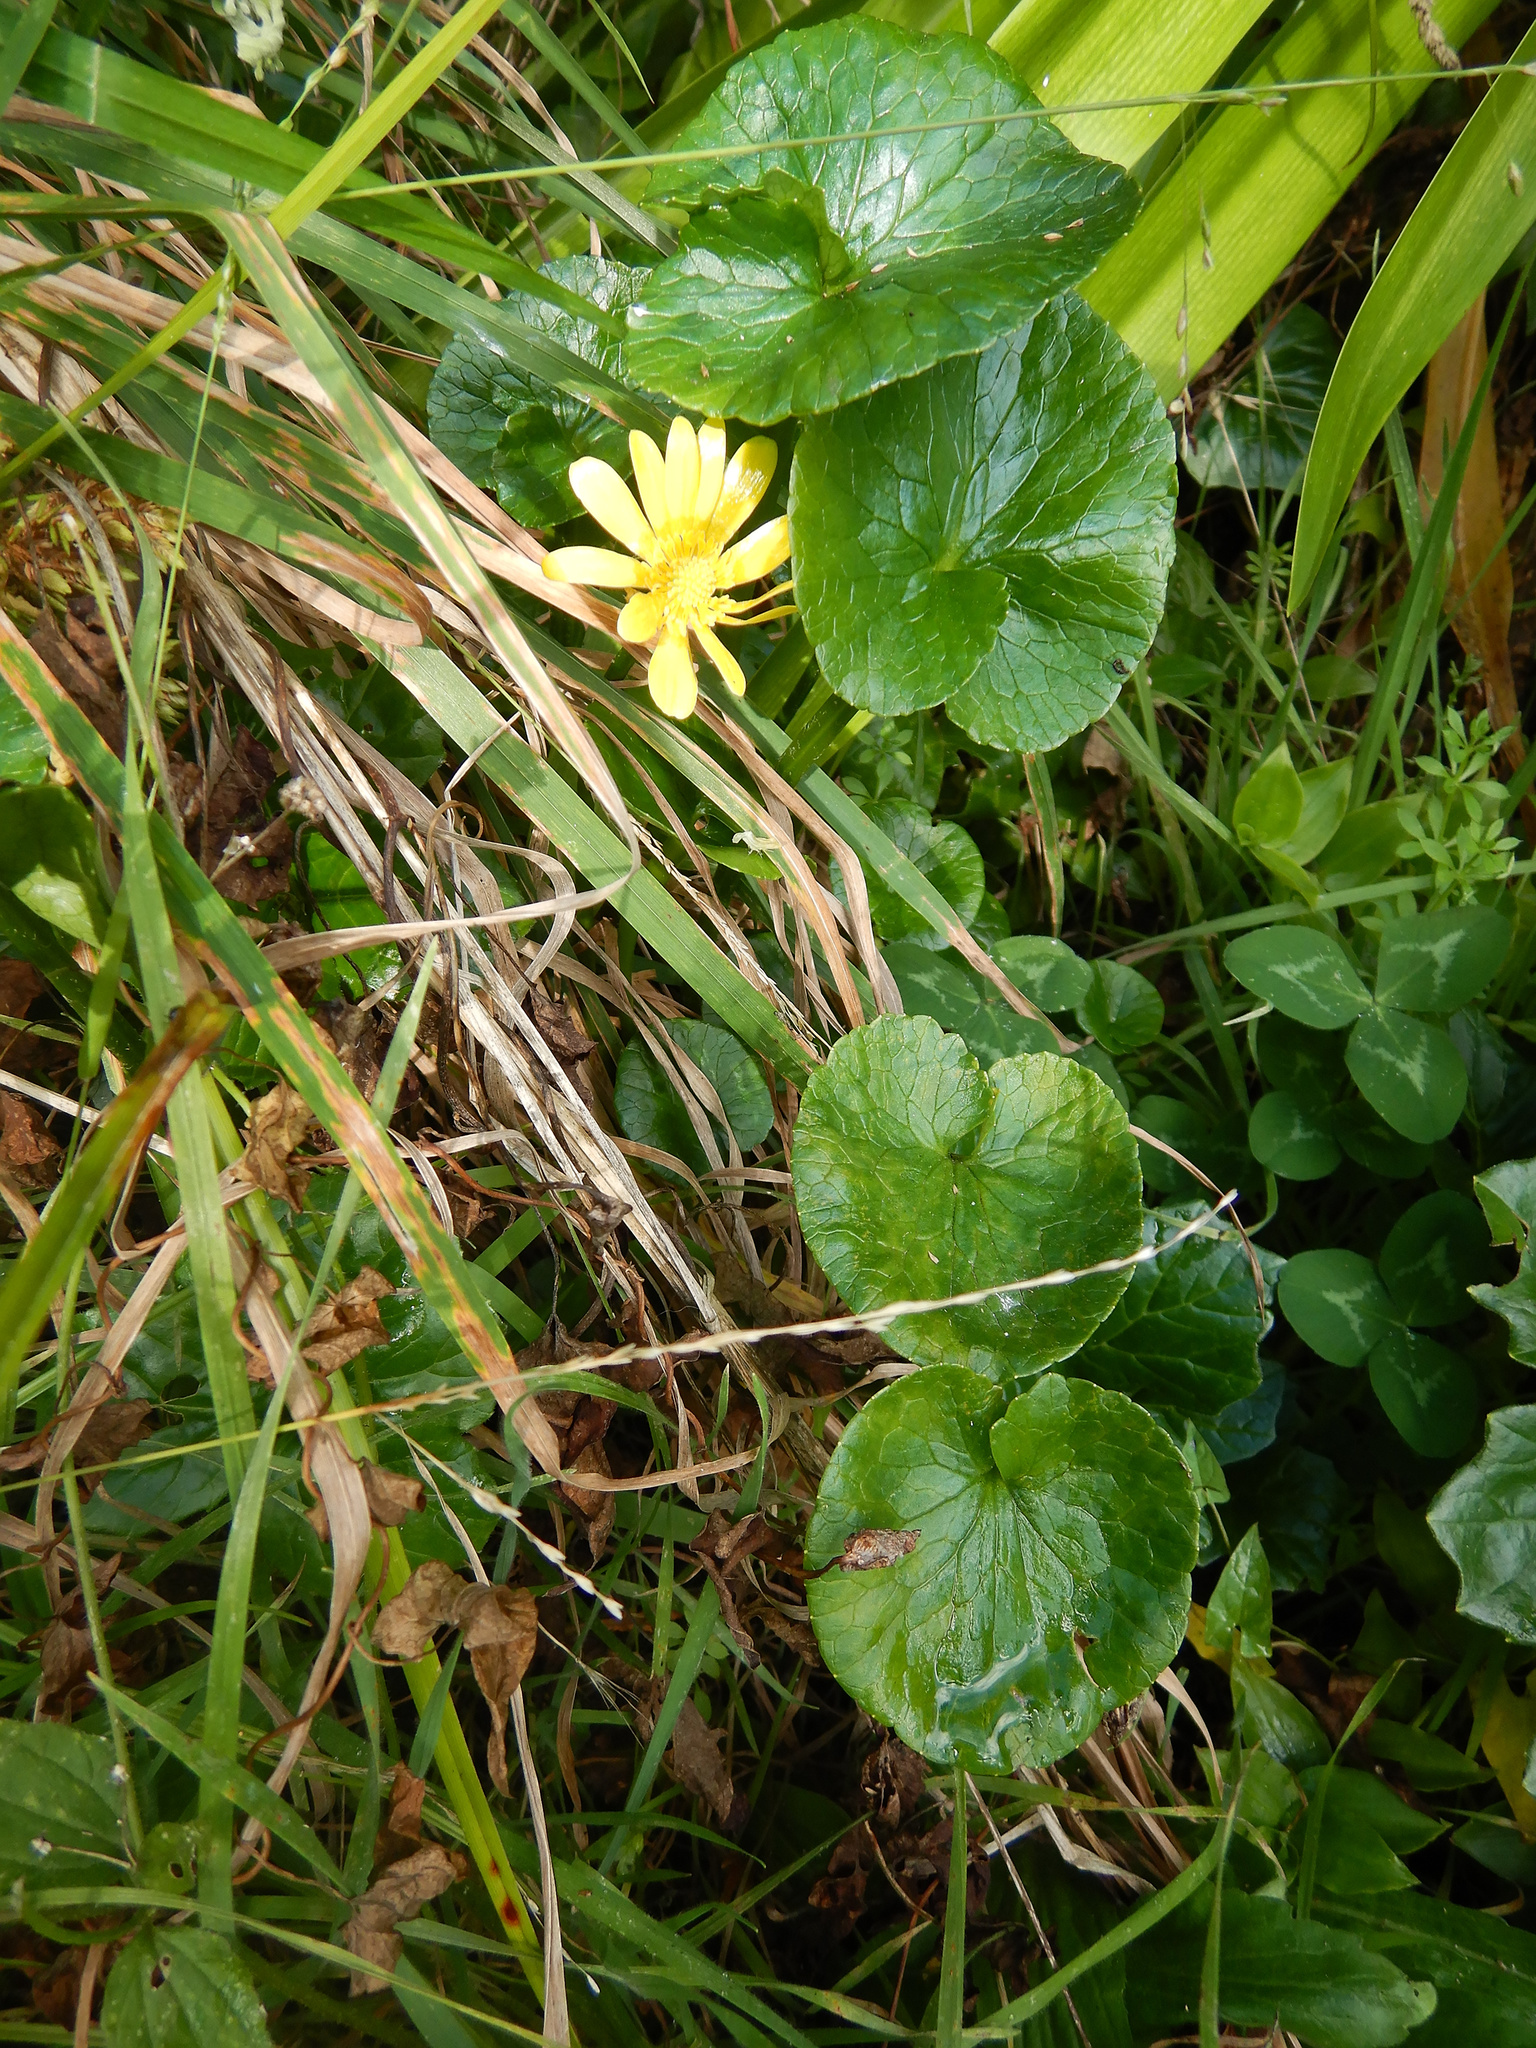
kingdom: Plantae
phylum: Tracheophyta
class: Magnoliopsida
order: Ranunculales
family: Ranunculaceae
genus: Ficaria
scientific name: Ficaria verna
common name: Lesser celandine
